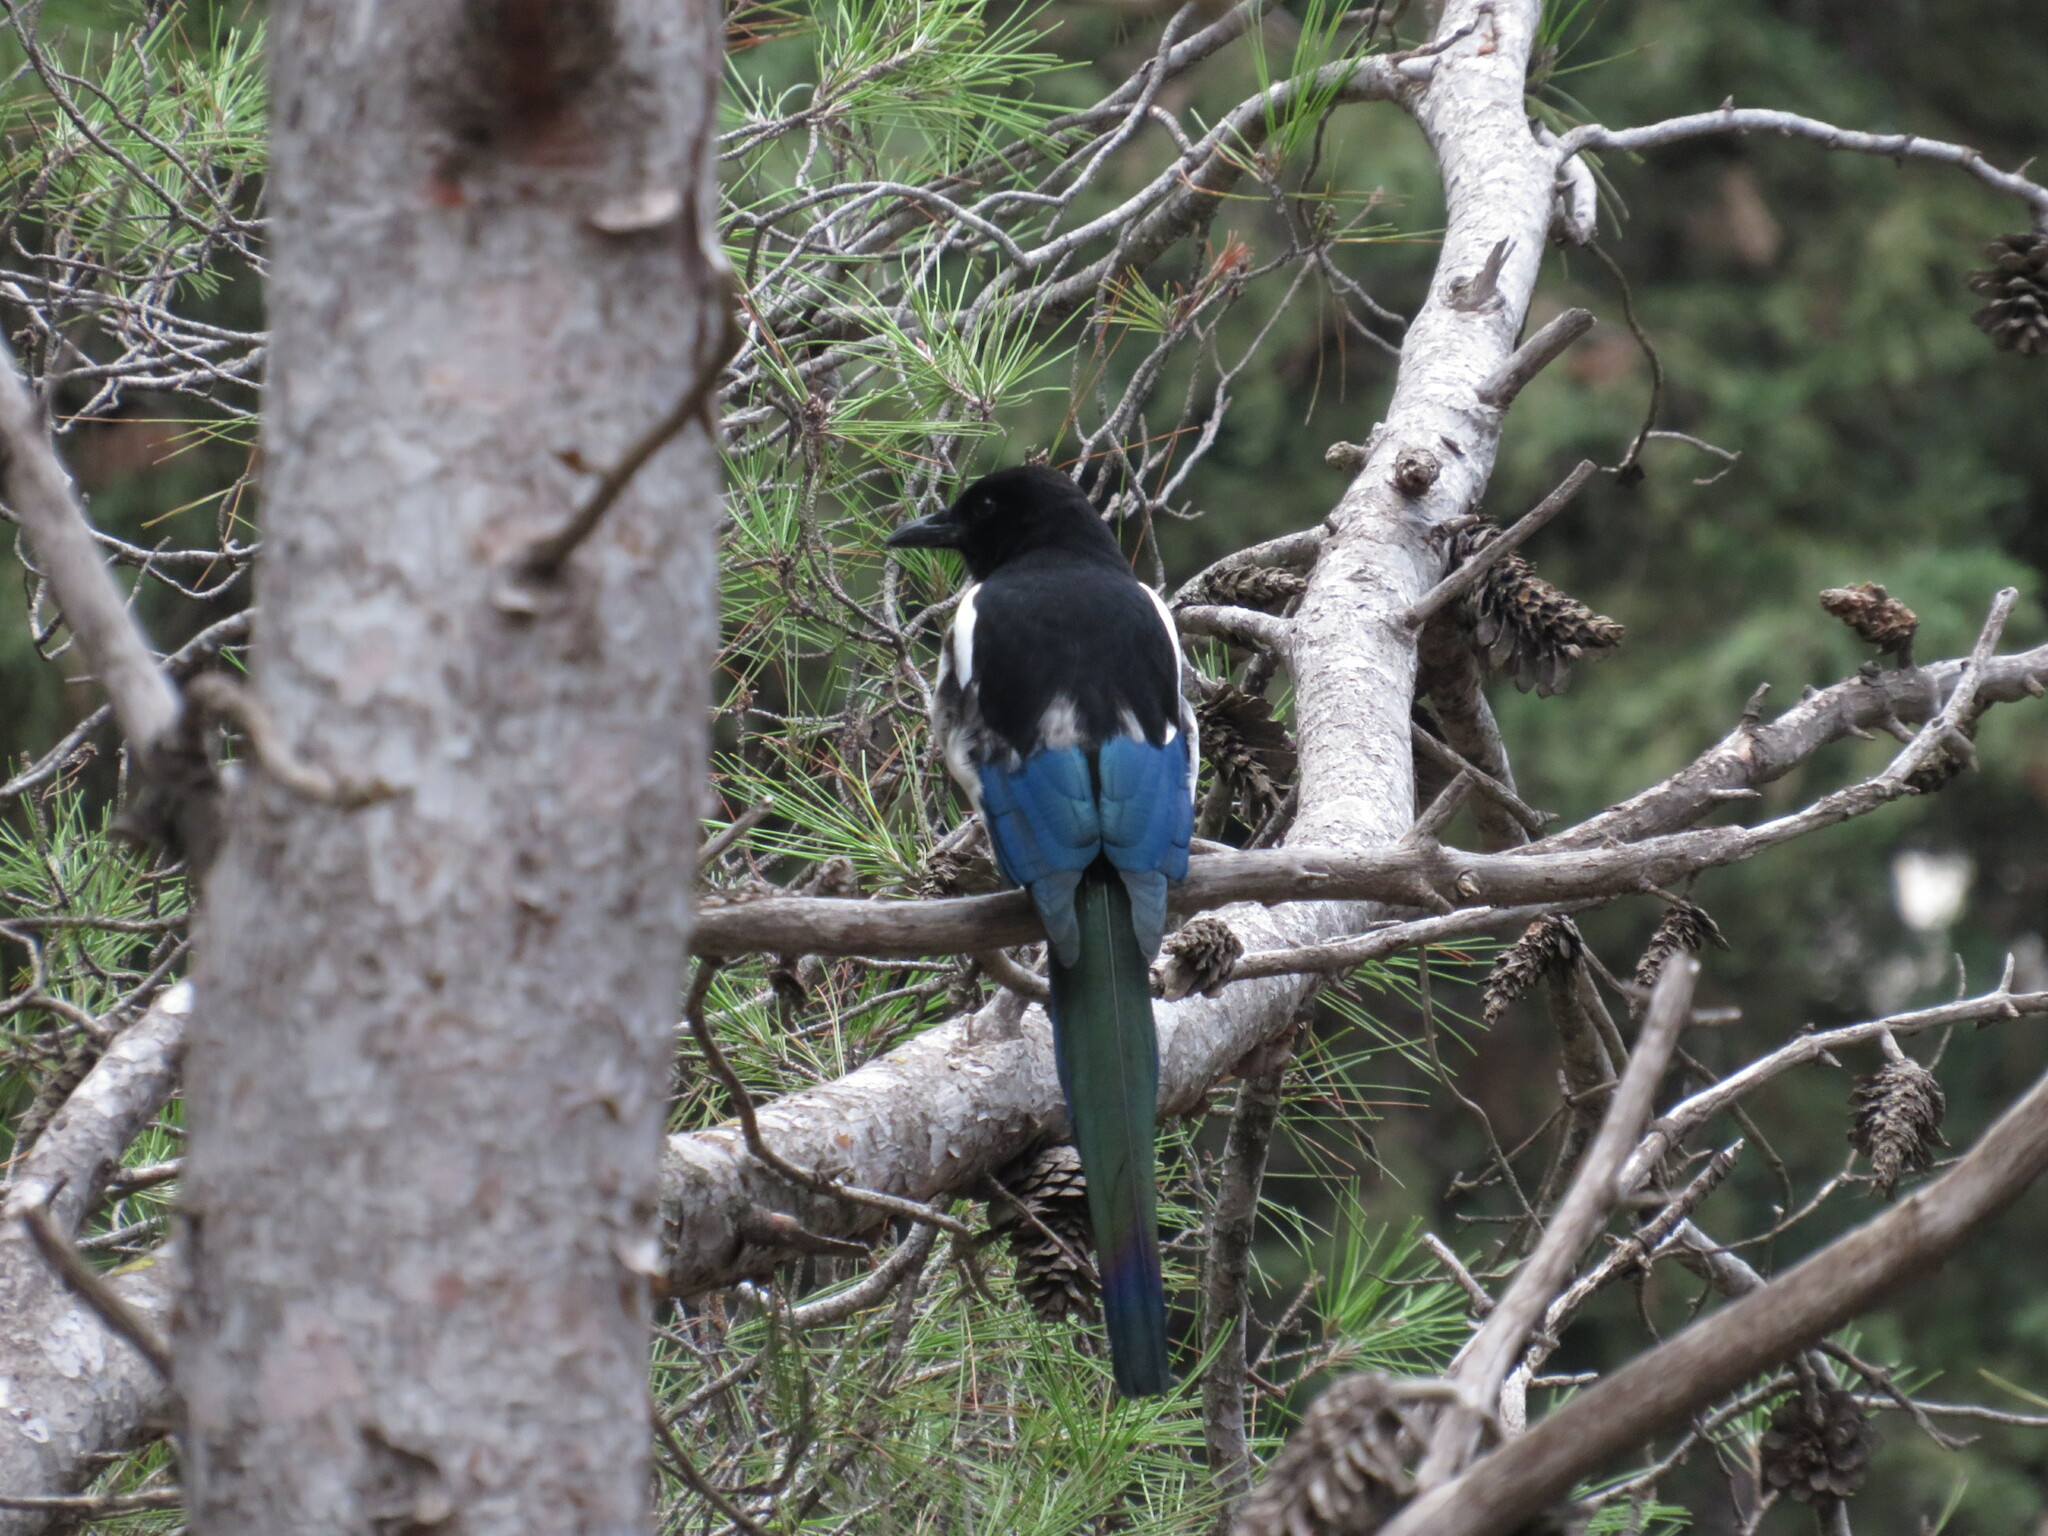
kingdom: Animalia
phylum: Chordata
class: Aves
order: Passeriformes
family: Corvidae
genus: Pica
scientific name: Pica pica
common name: Eurasian magpie
